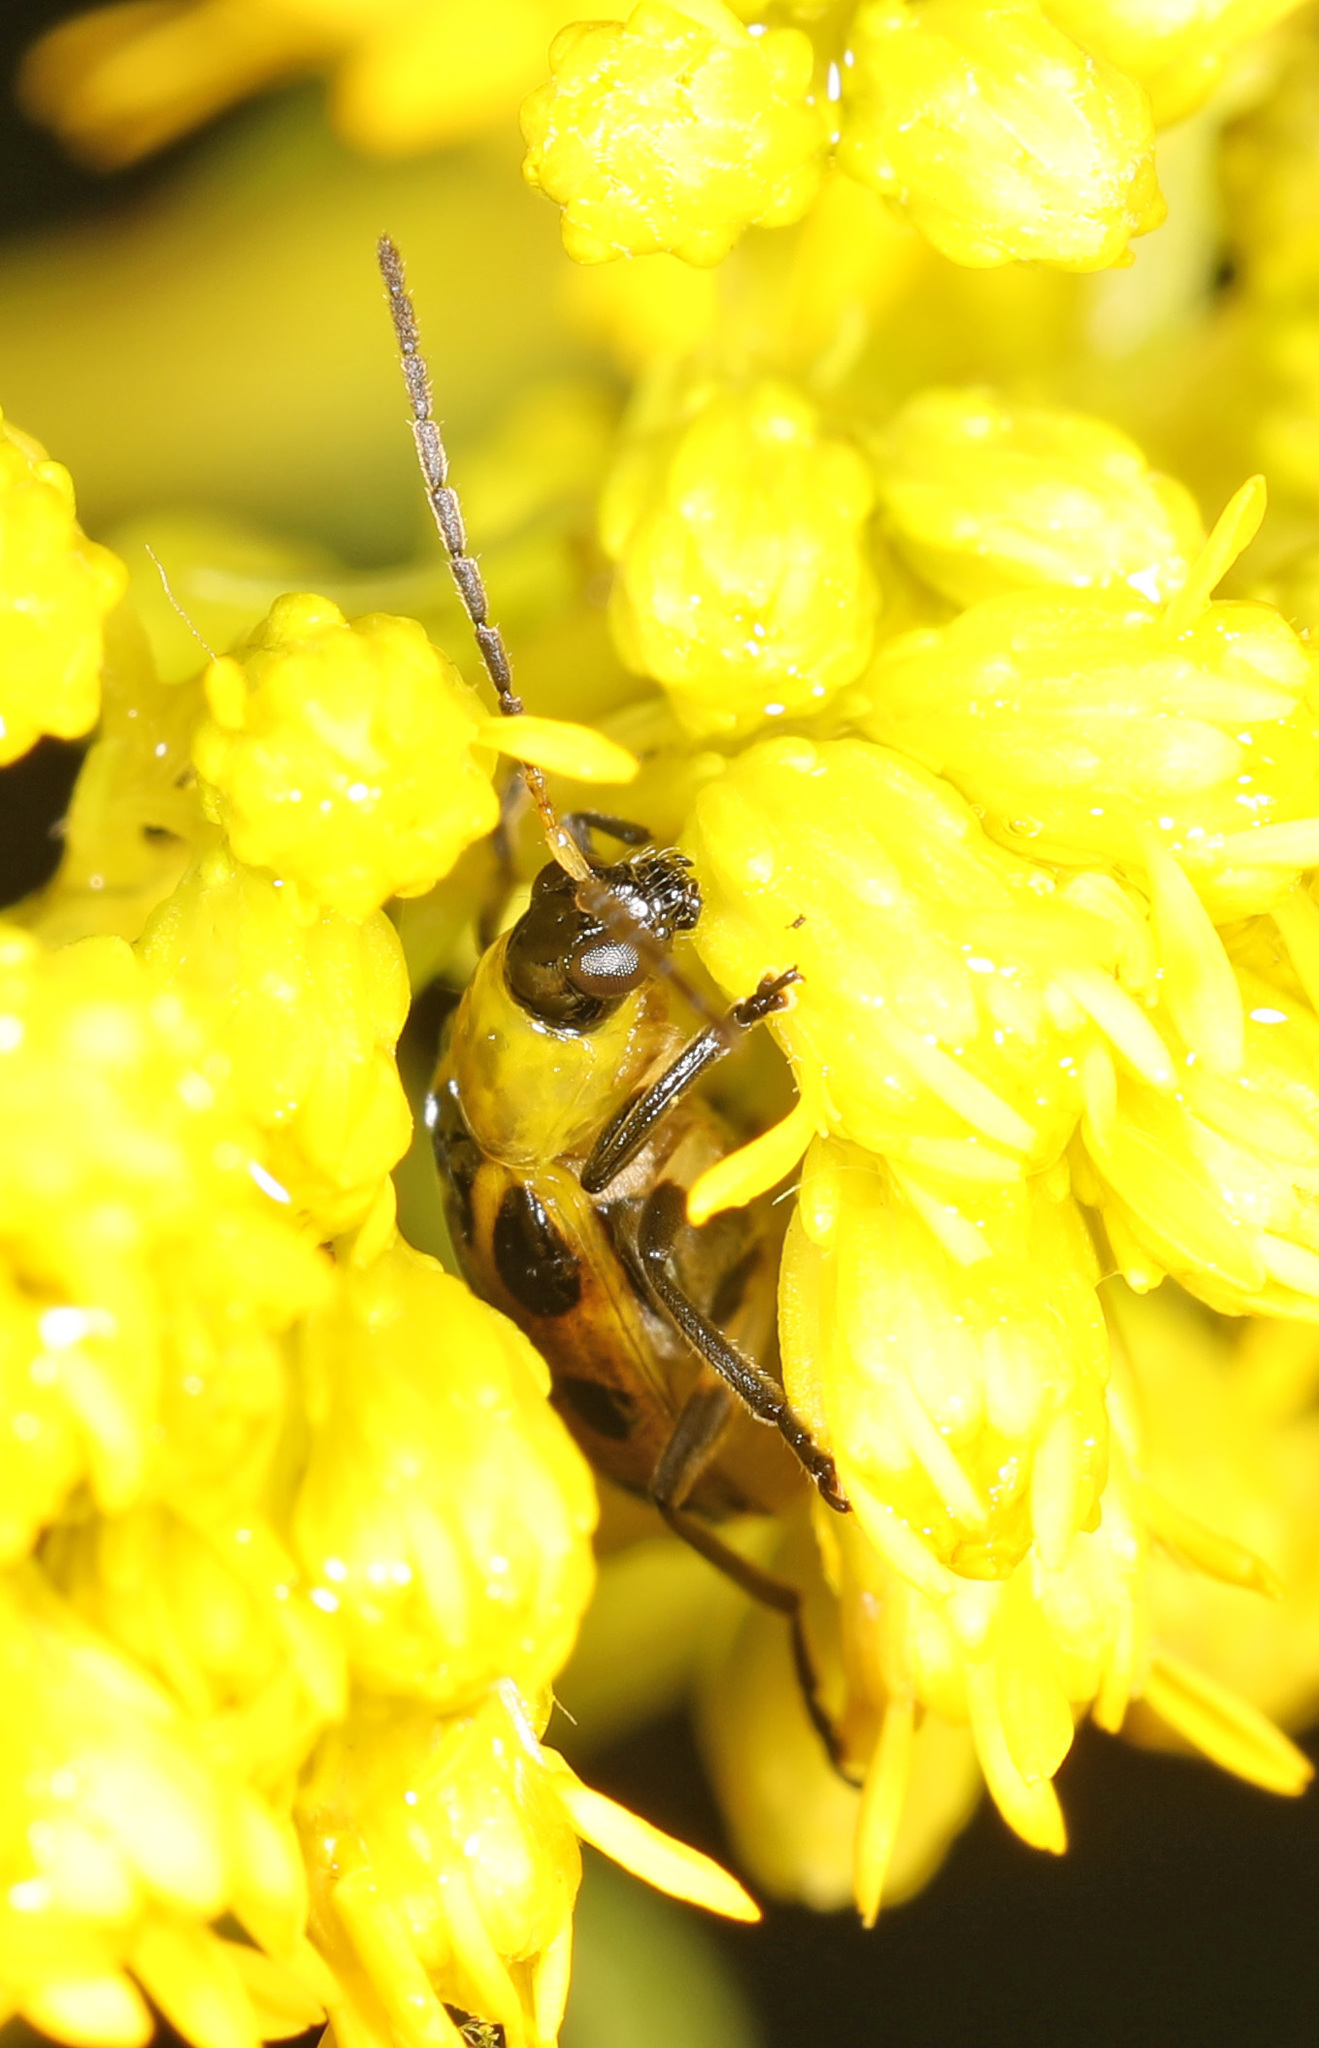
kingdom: Animalia
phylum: Arthropoda
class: Insecta
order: Coleoptera
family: Chrysomelidae
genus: Diabrotica
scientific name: Diabrotica undecimpunctata
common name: Spotted cucumber beetle
